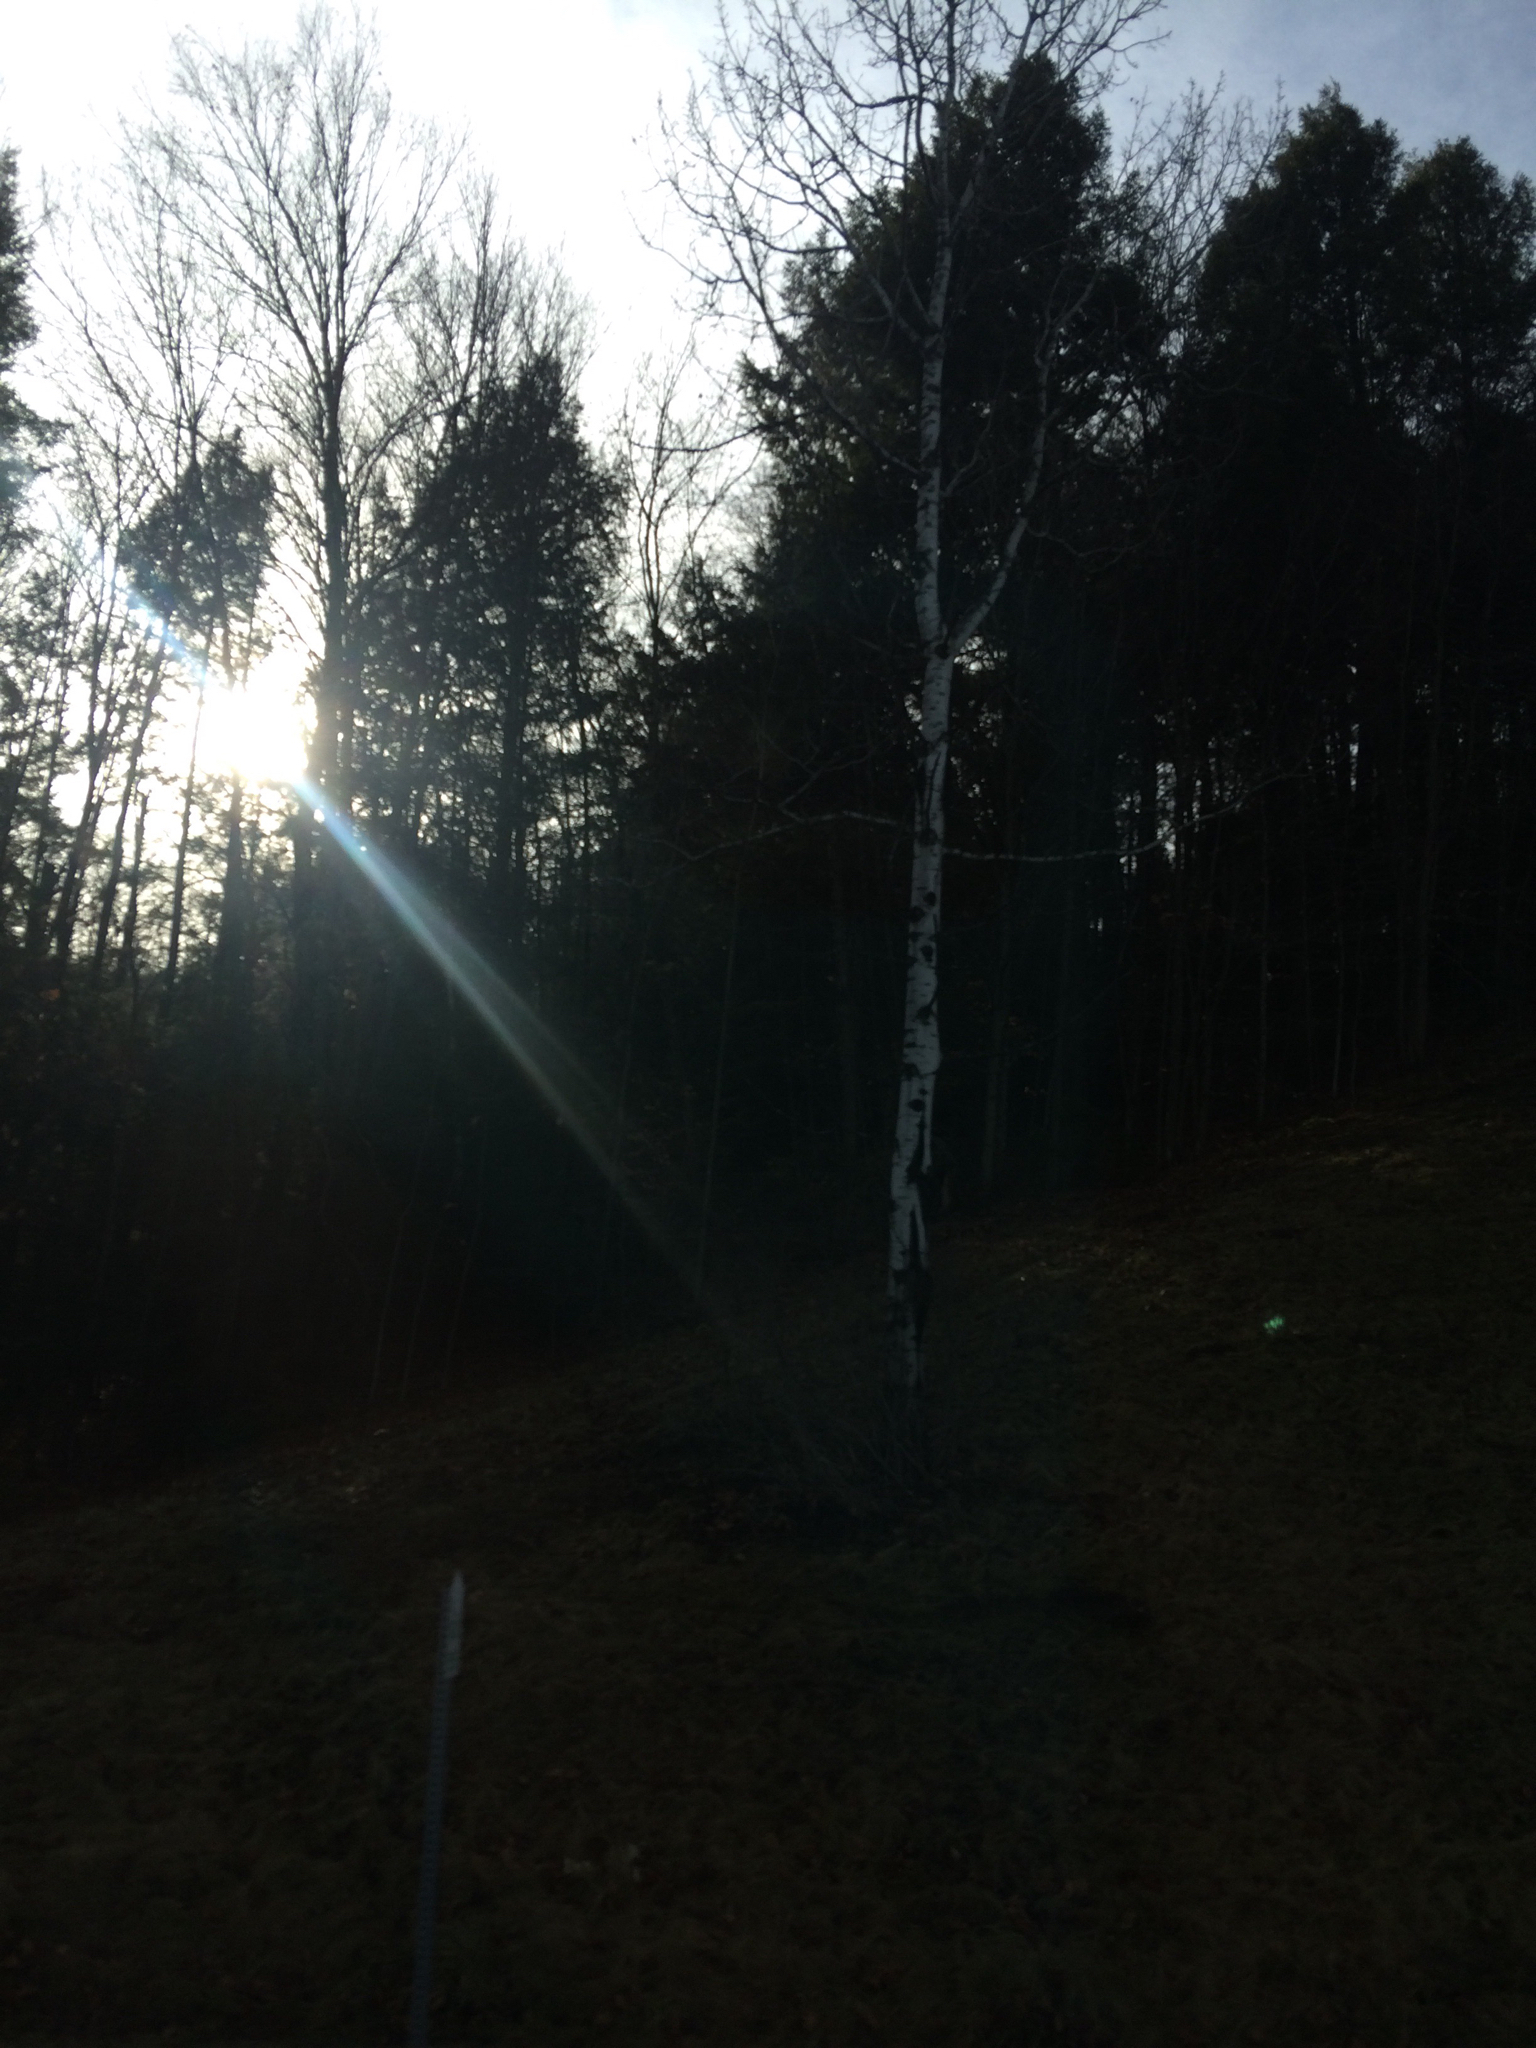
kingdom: Plantae
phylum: Tracheophyta
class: Magnoliopsida
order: Malpighiales
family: Salicaceae
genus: Populus
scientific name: Populus tremuloides
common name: Quaking aspen
